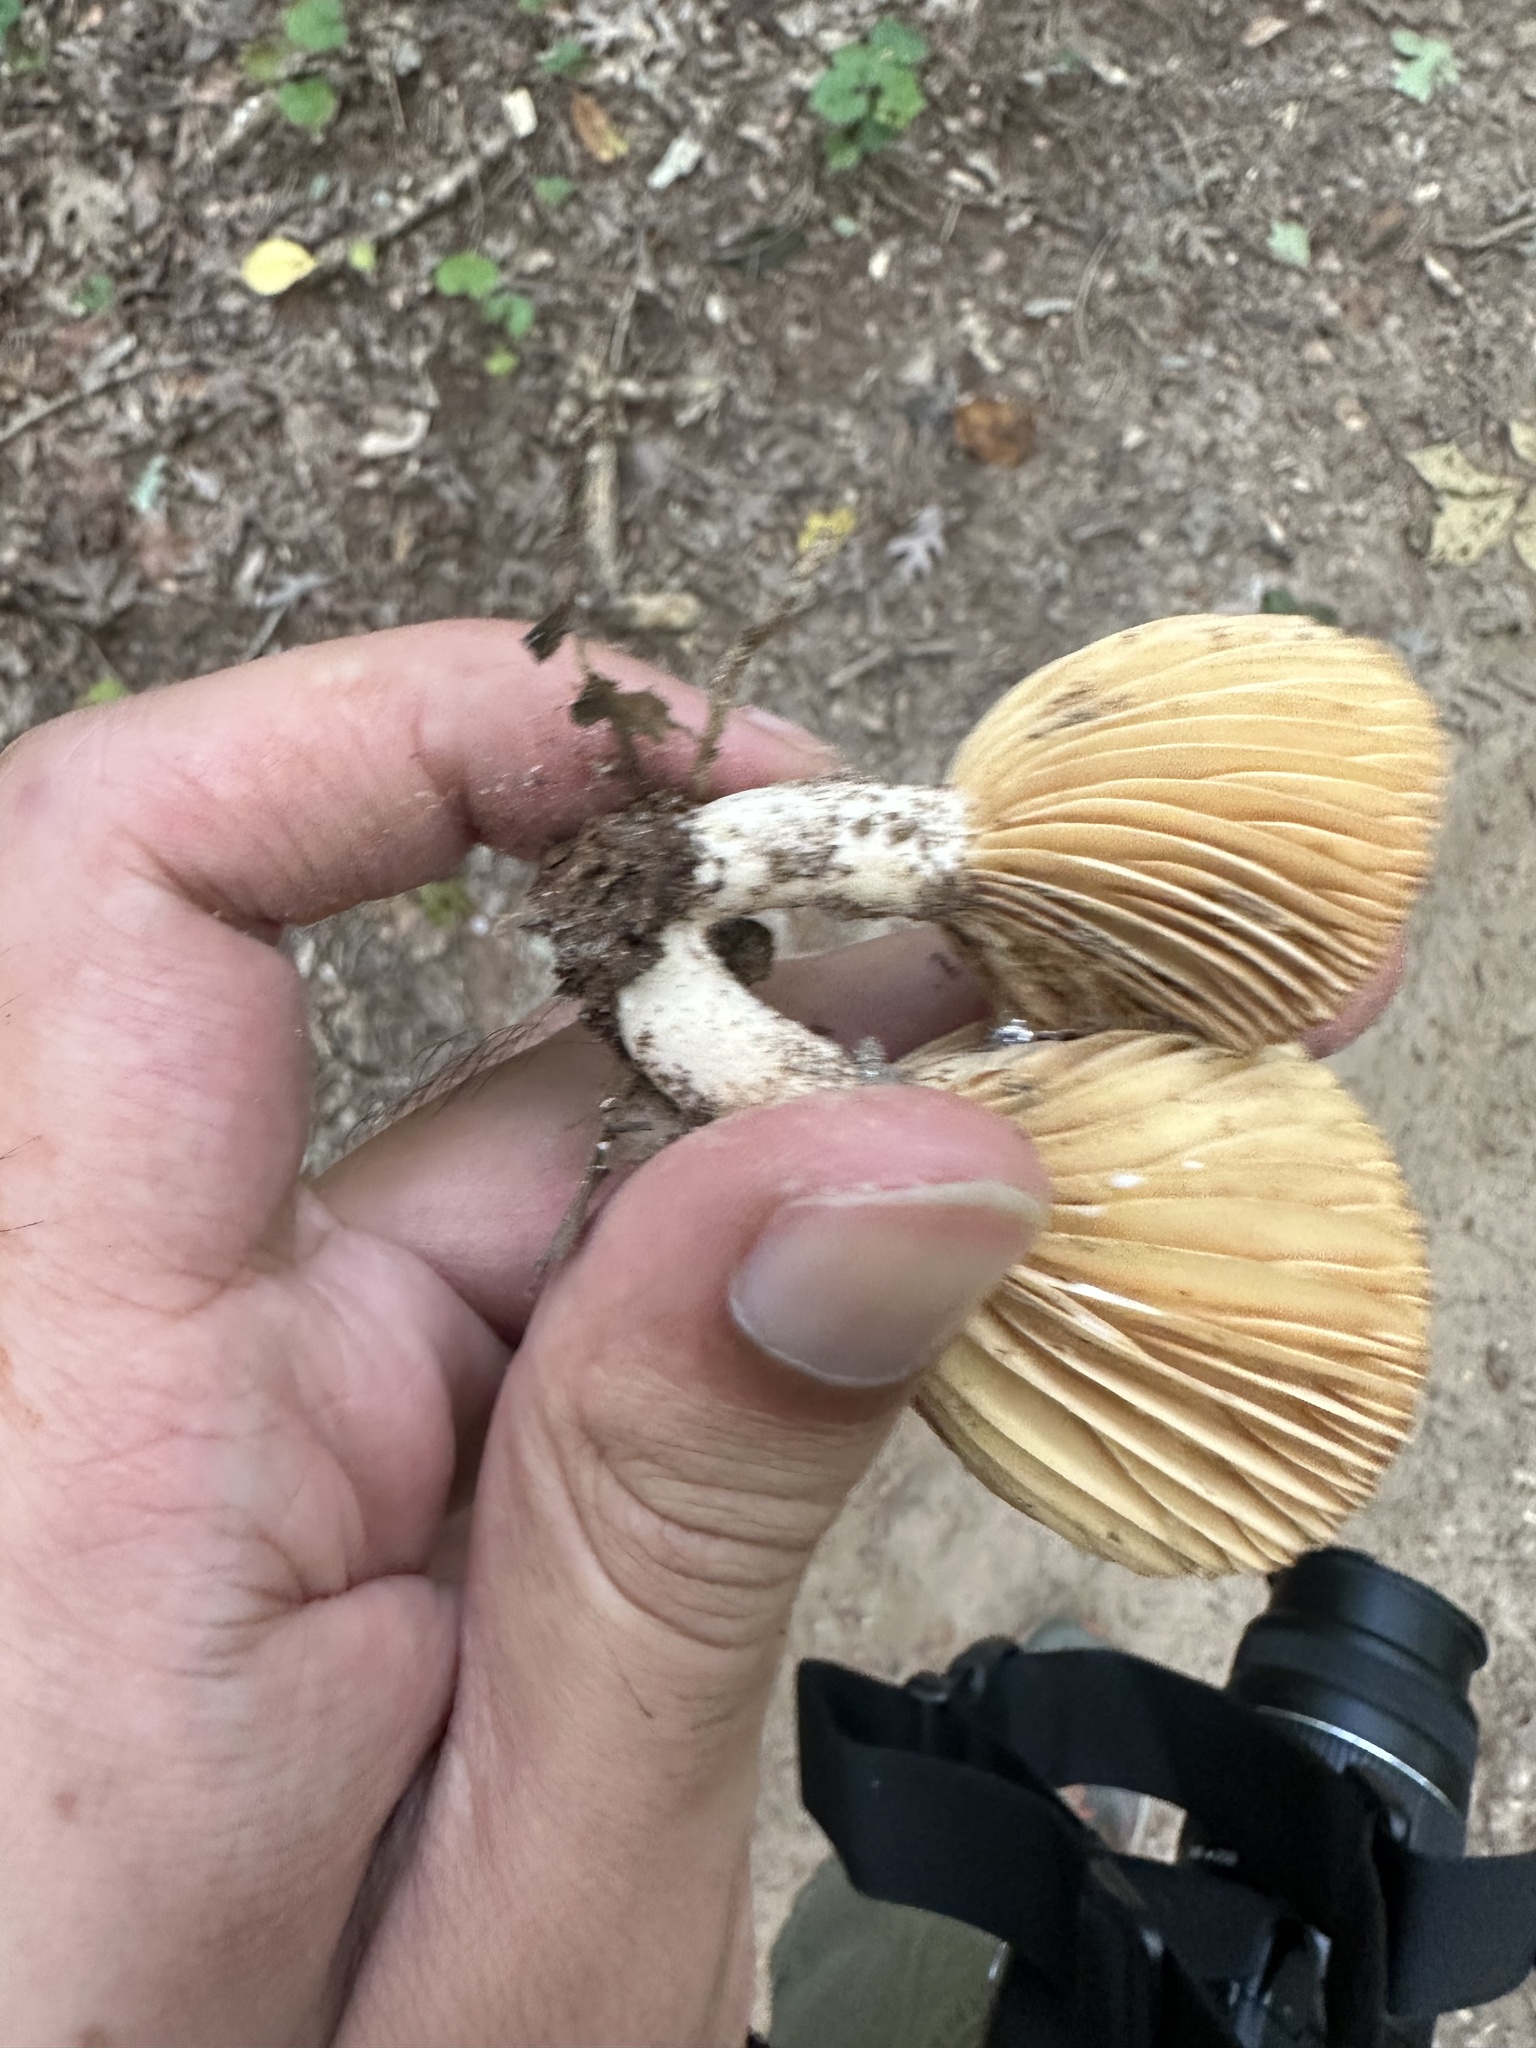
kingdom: Fungi
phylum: Basidiomycota
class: Agaricomycetes
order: Russulales
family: Russulaceae
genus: Lactarius
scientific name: Lactarius subplinthogalus
